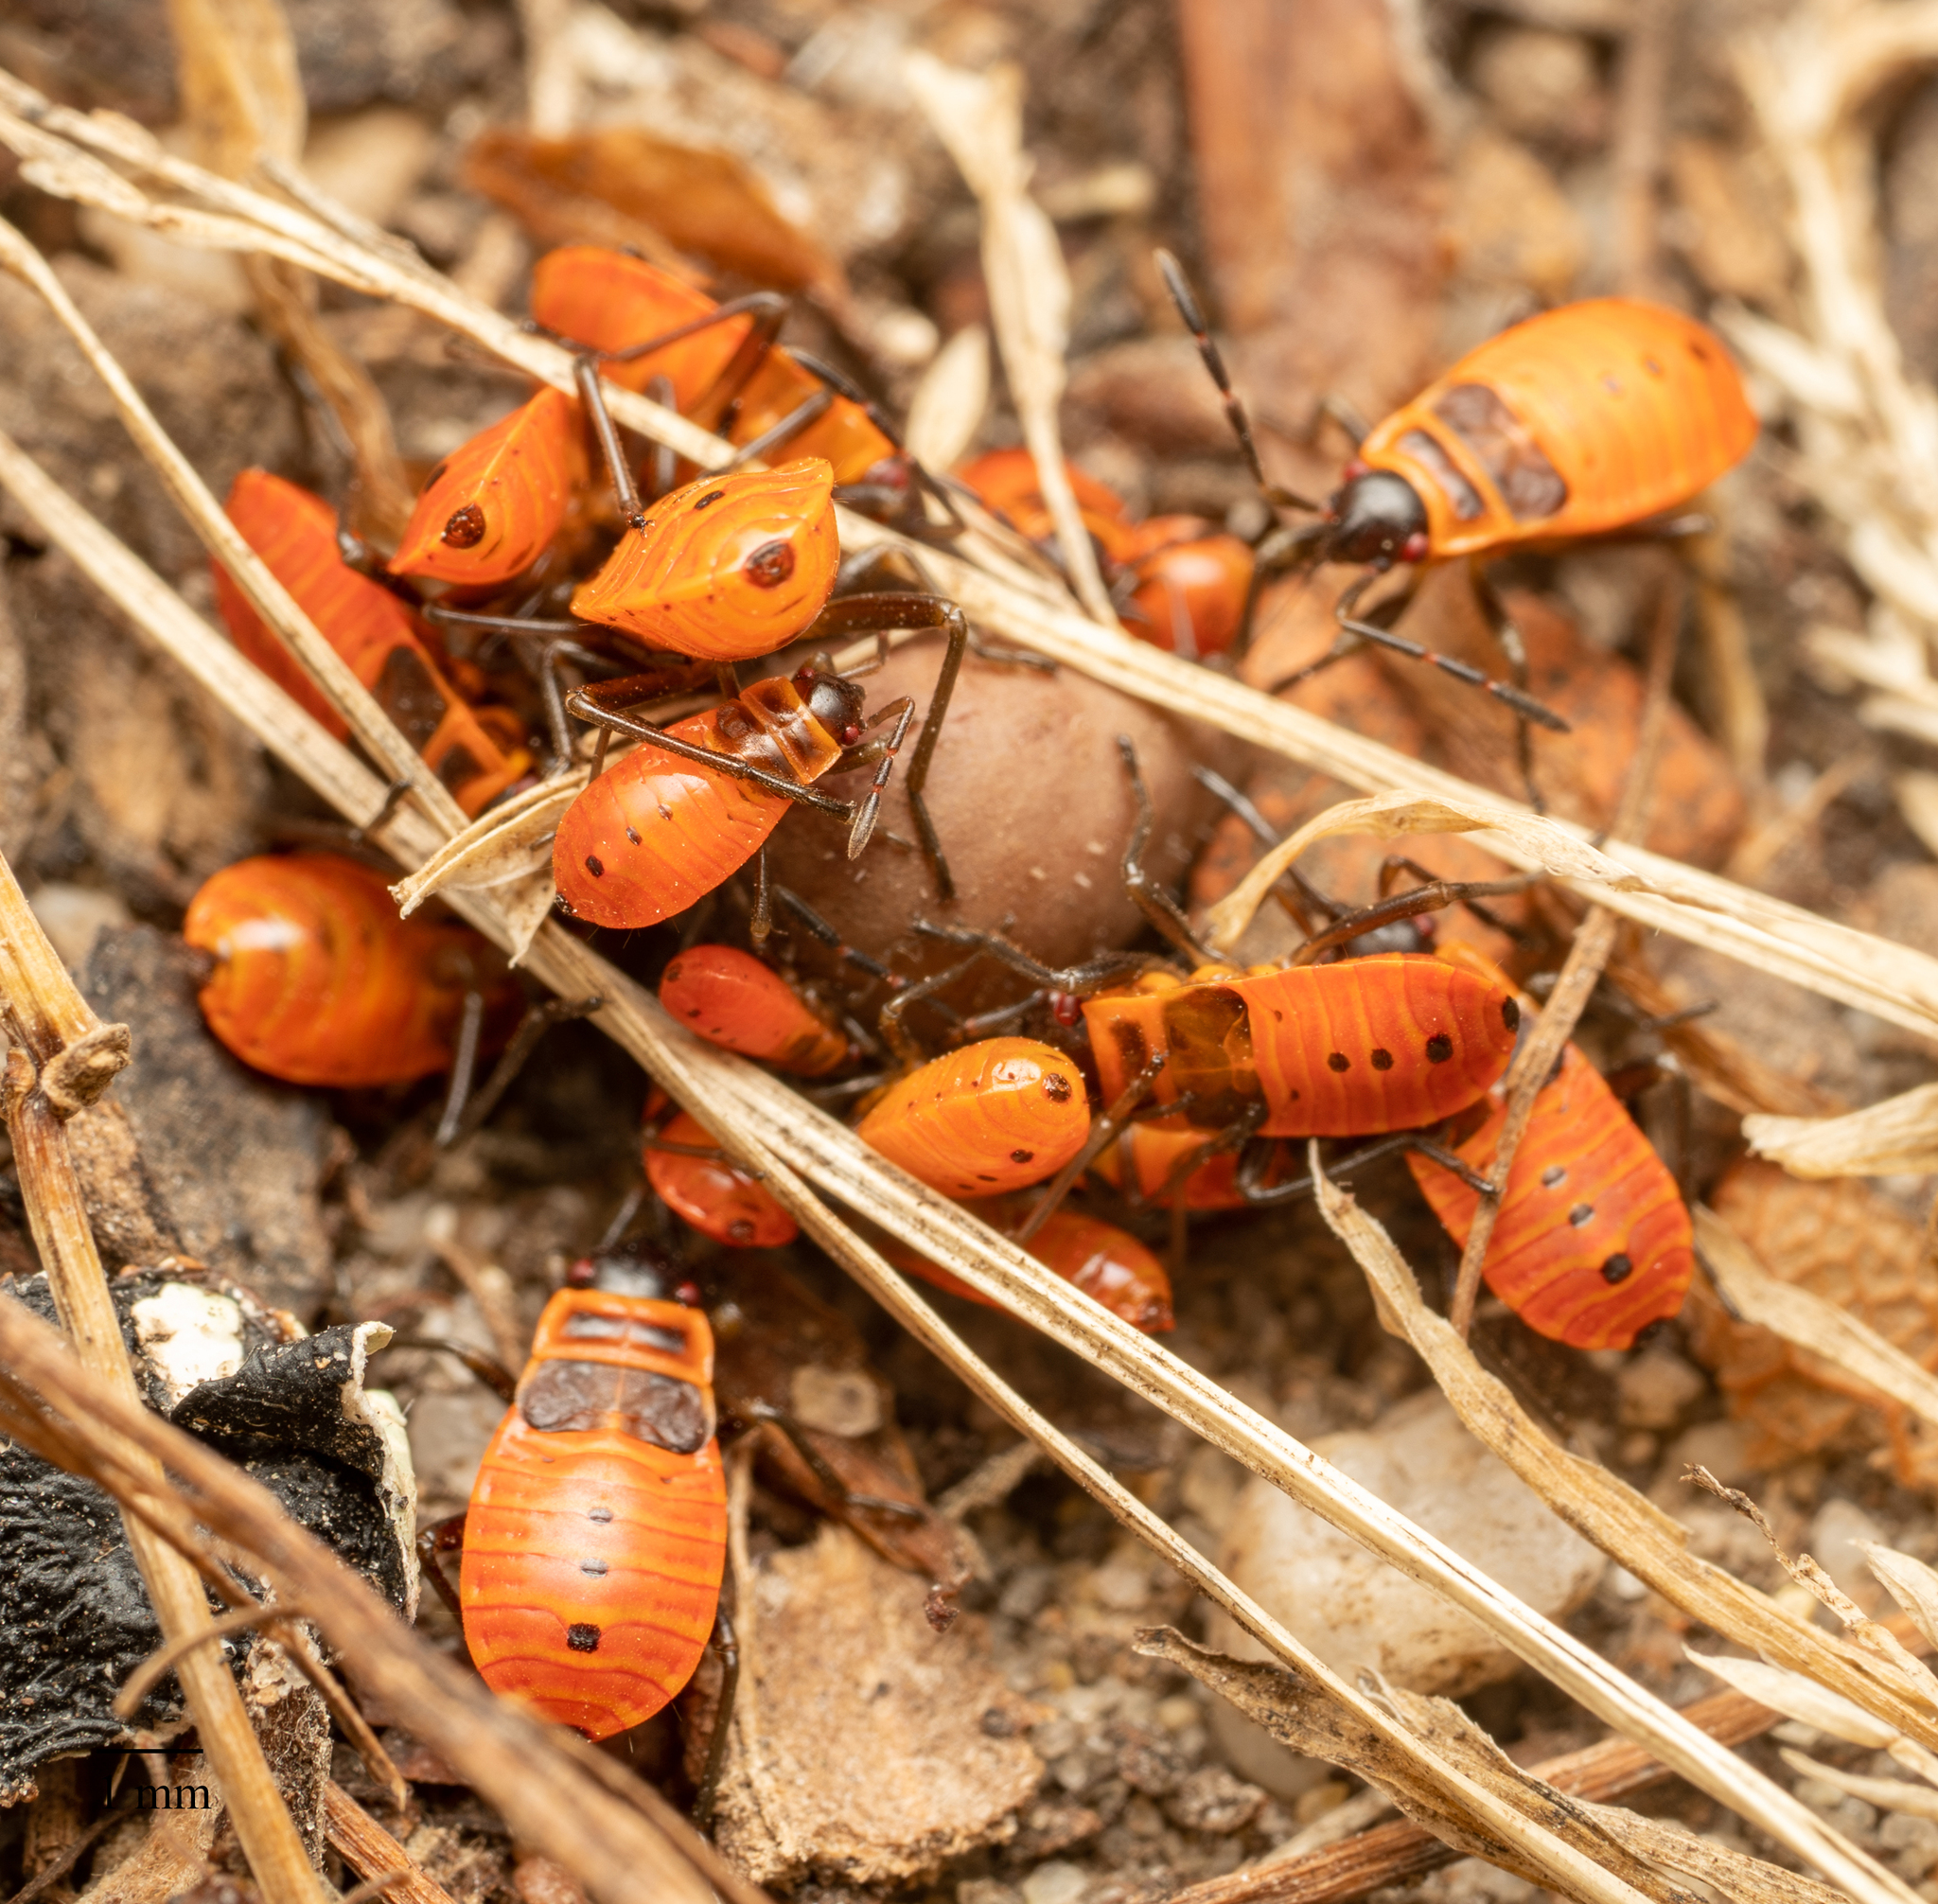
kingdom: Animalia
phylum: Arthropoda
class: Insecta
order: Hemiptera
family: Pyrrhocoridae
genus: Pyrrhocoris
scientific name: Pyrrhocoris apterus
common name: Firebug
